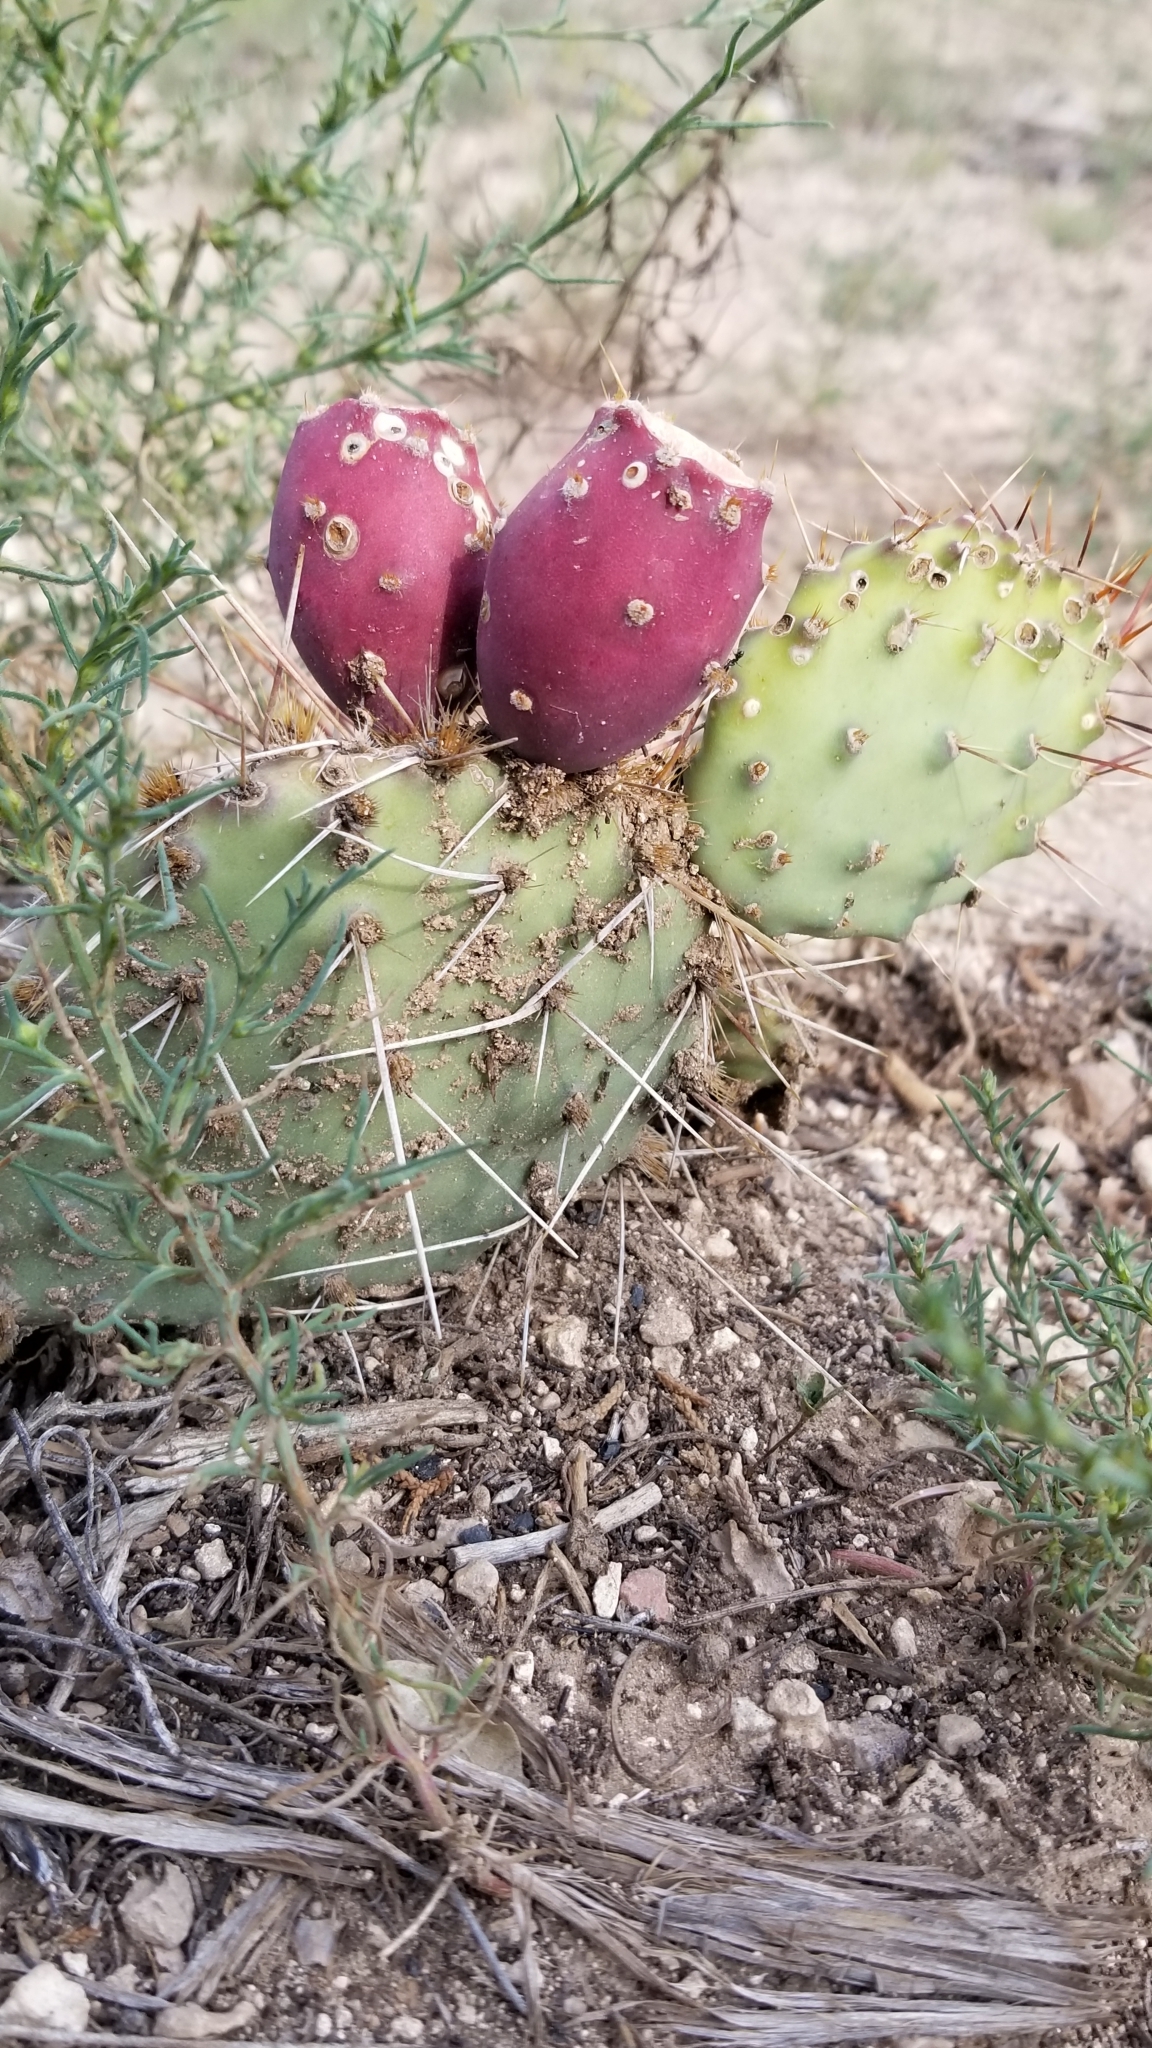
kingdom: Plantae
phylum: Tracheophyta
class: Magnoliopsida
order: Caryophyllales
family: Cactaceae
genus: Opuntia
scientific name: Opuntia phaeacantha
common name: New mexico prickly-pear
